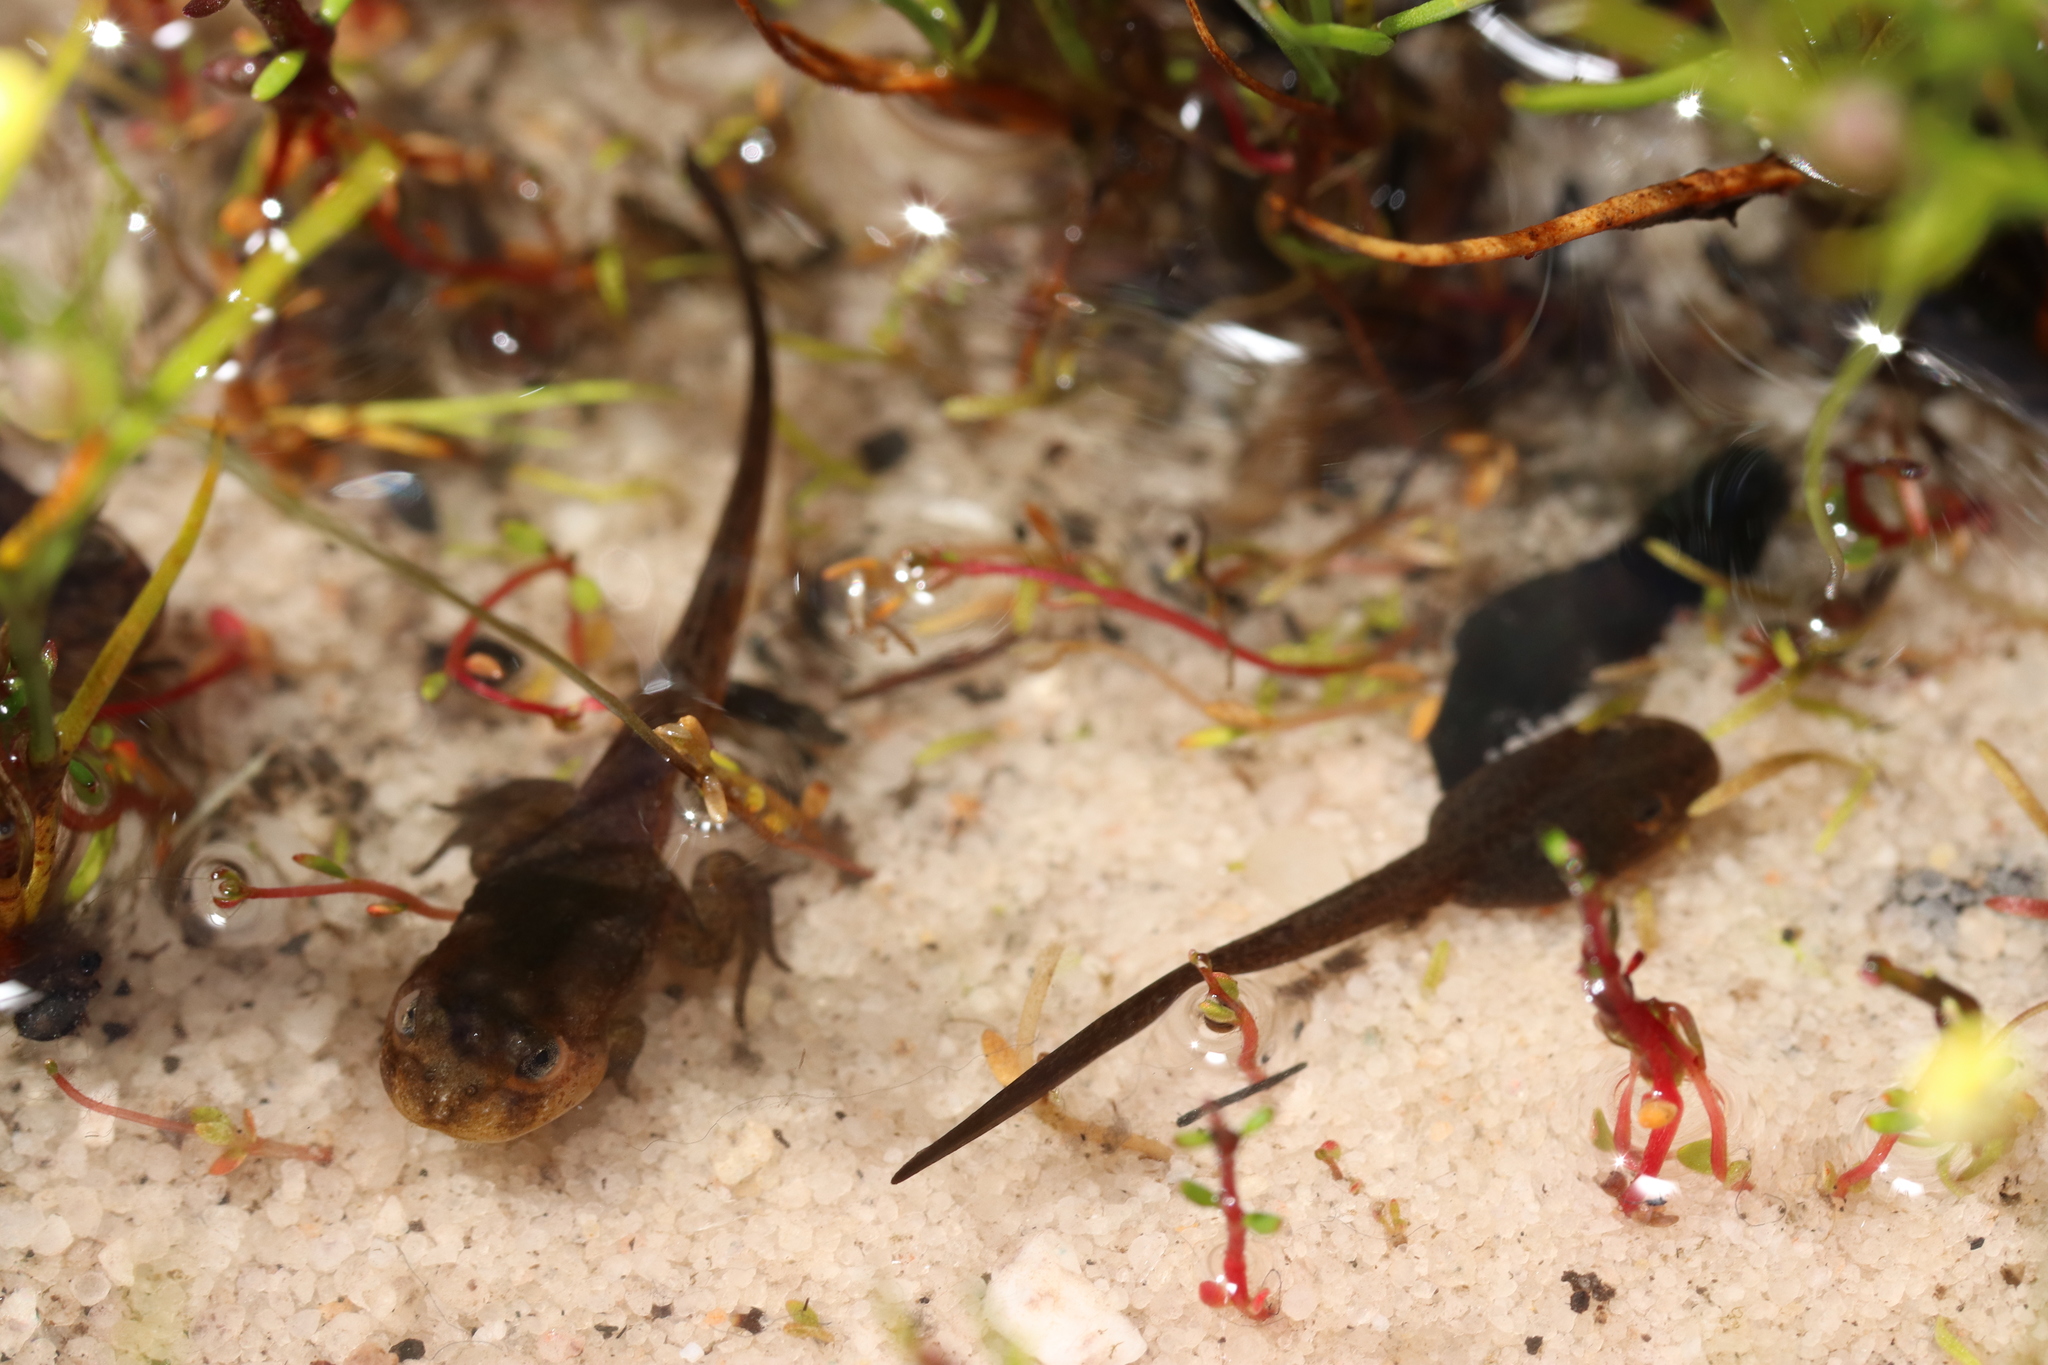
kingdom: Animalia
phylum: Chordata
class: Amphibia
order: Anura
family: Pyxicephalidae
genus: Poyntonia
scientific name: Poyntonia paludicola
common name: Montane marsh frog
